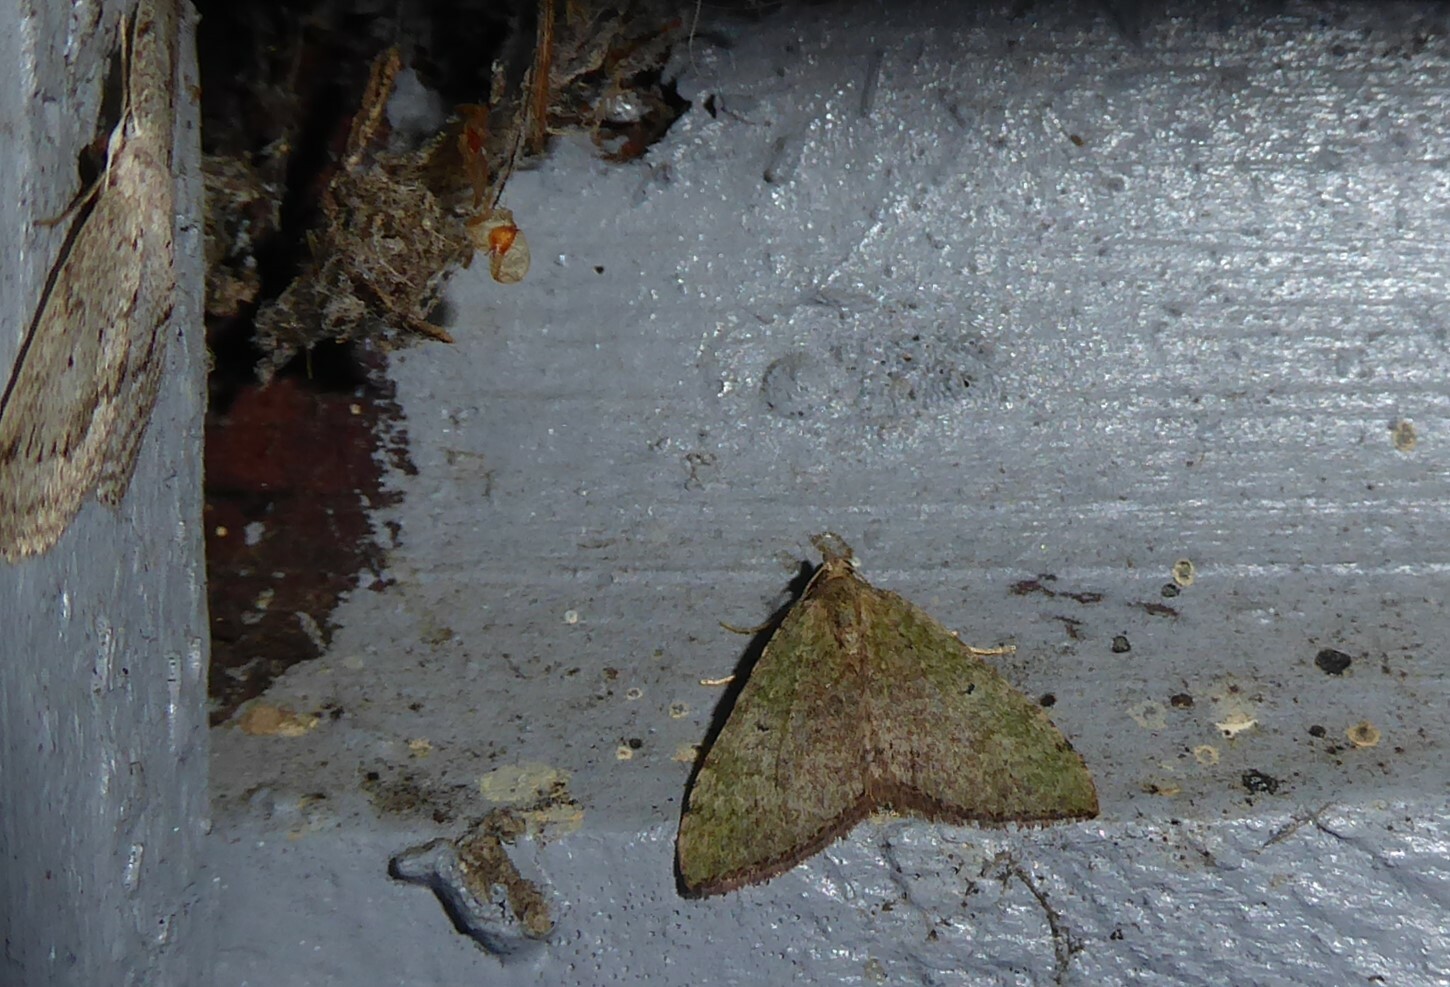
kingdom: Animalia
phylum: Arthropoda
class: Insecta
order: Lepidoptera
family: Geometridae
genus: Epyaxa
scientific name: Epyaxa rosearia
